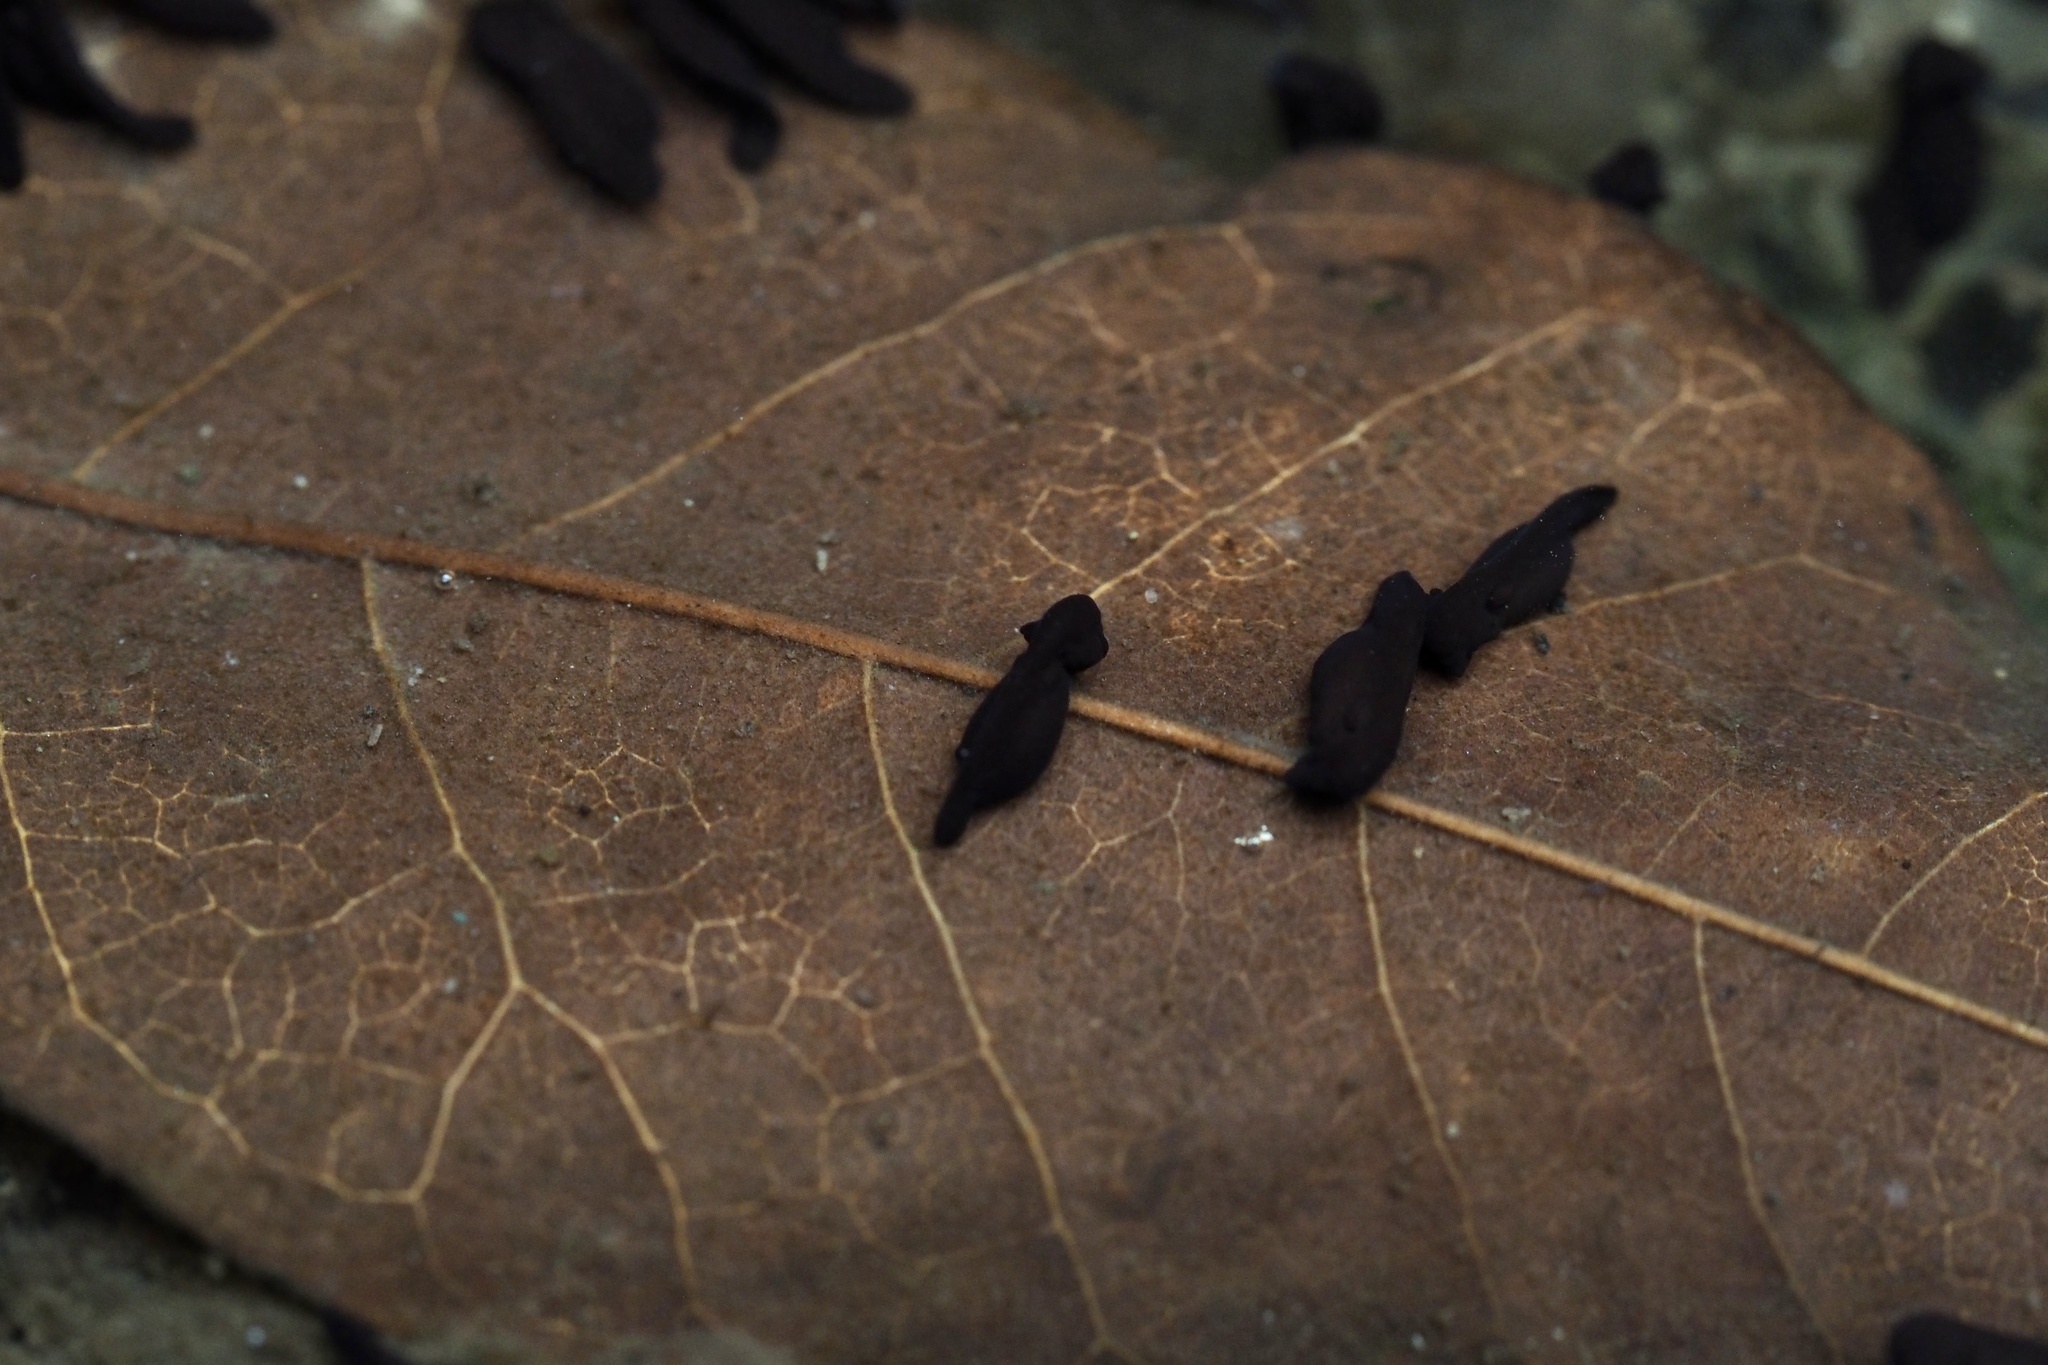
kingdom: Animalia
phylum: Chordata
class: Amphibia
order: Anura
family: Bufonidae
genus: Bufo
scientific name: Bufo japonicus
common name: Japanese common toad
